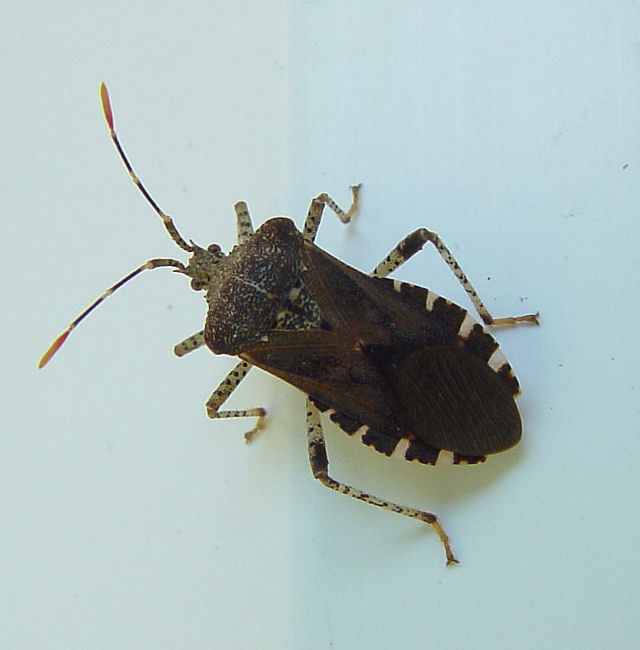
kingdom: Animalia
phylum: Arthropoda
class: Insecta
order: Hemiptera
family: Coreidae
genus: Anasa
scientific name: Anasa armigera
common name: Horned squash bug
